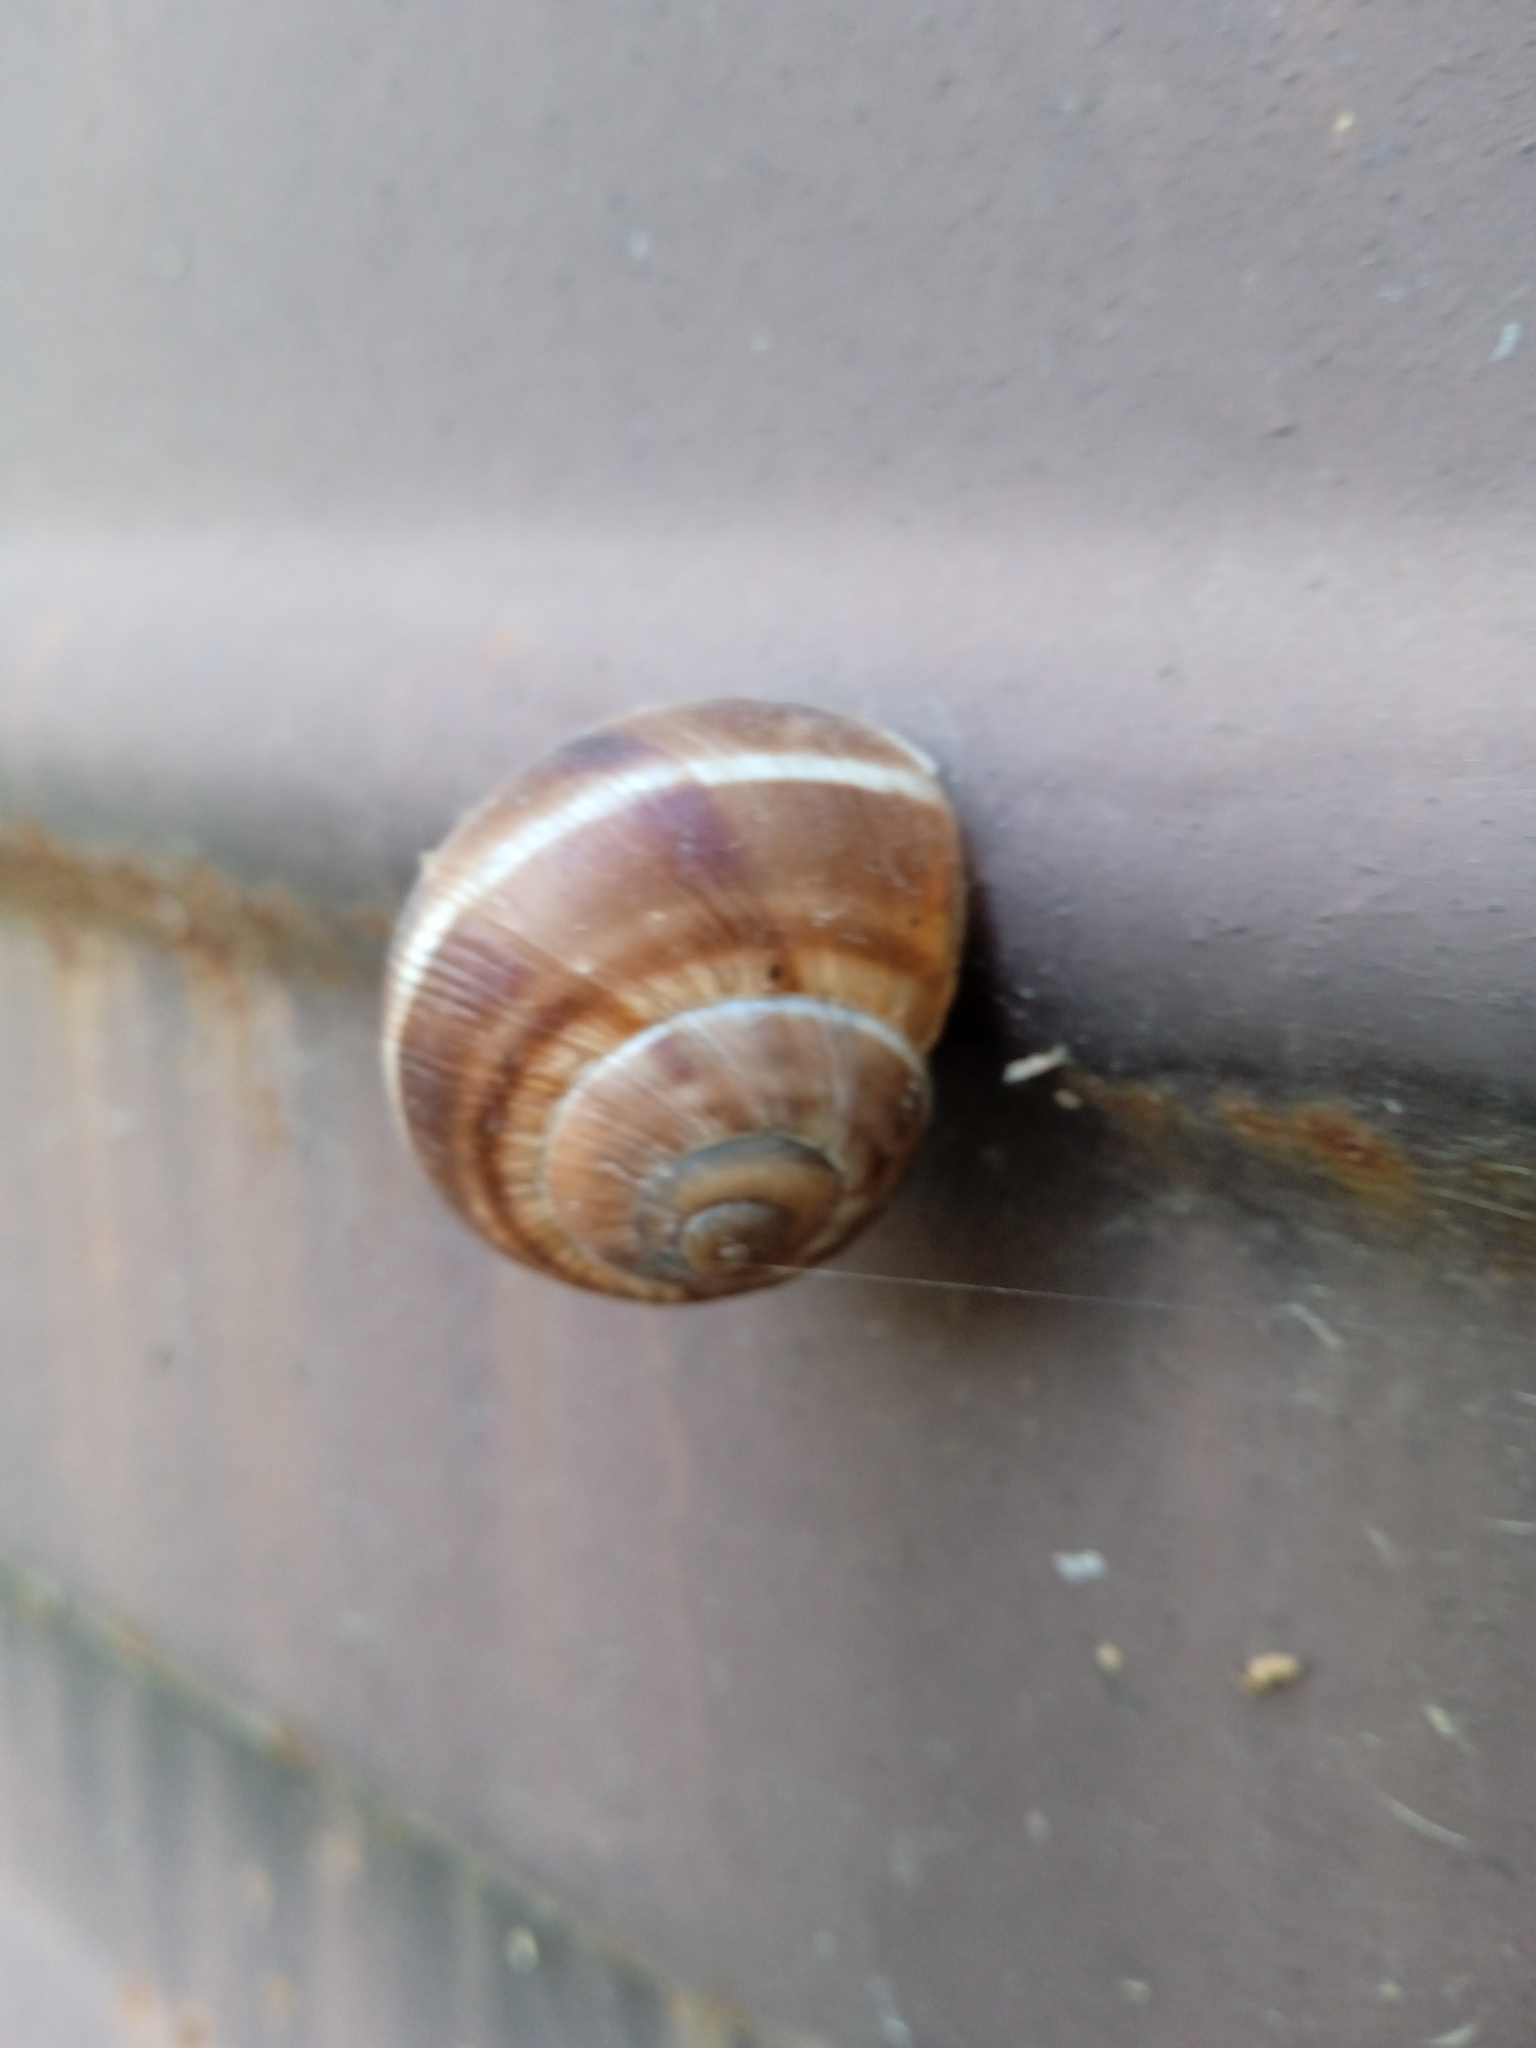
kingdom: Animalia
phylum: Mollusca
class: Gastropoda
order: Stylommatophora
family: Helicidae
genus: Helix
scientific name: Helix lucorum
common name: Turkish snail
